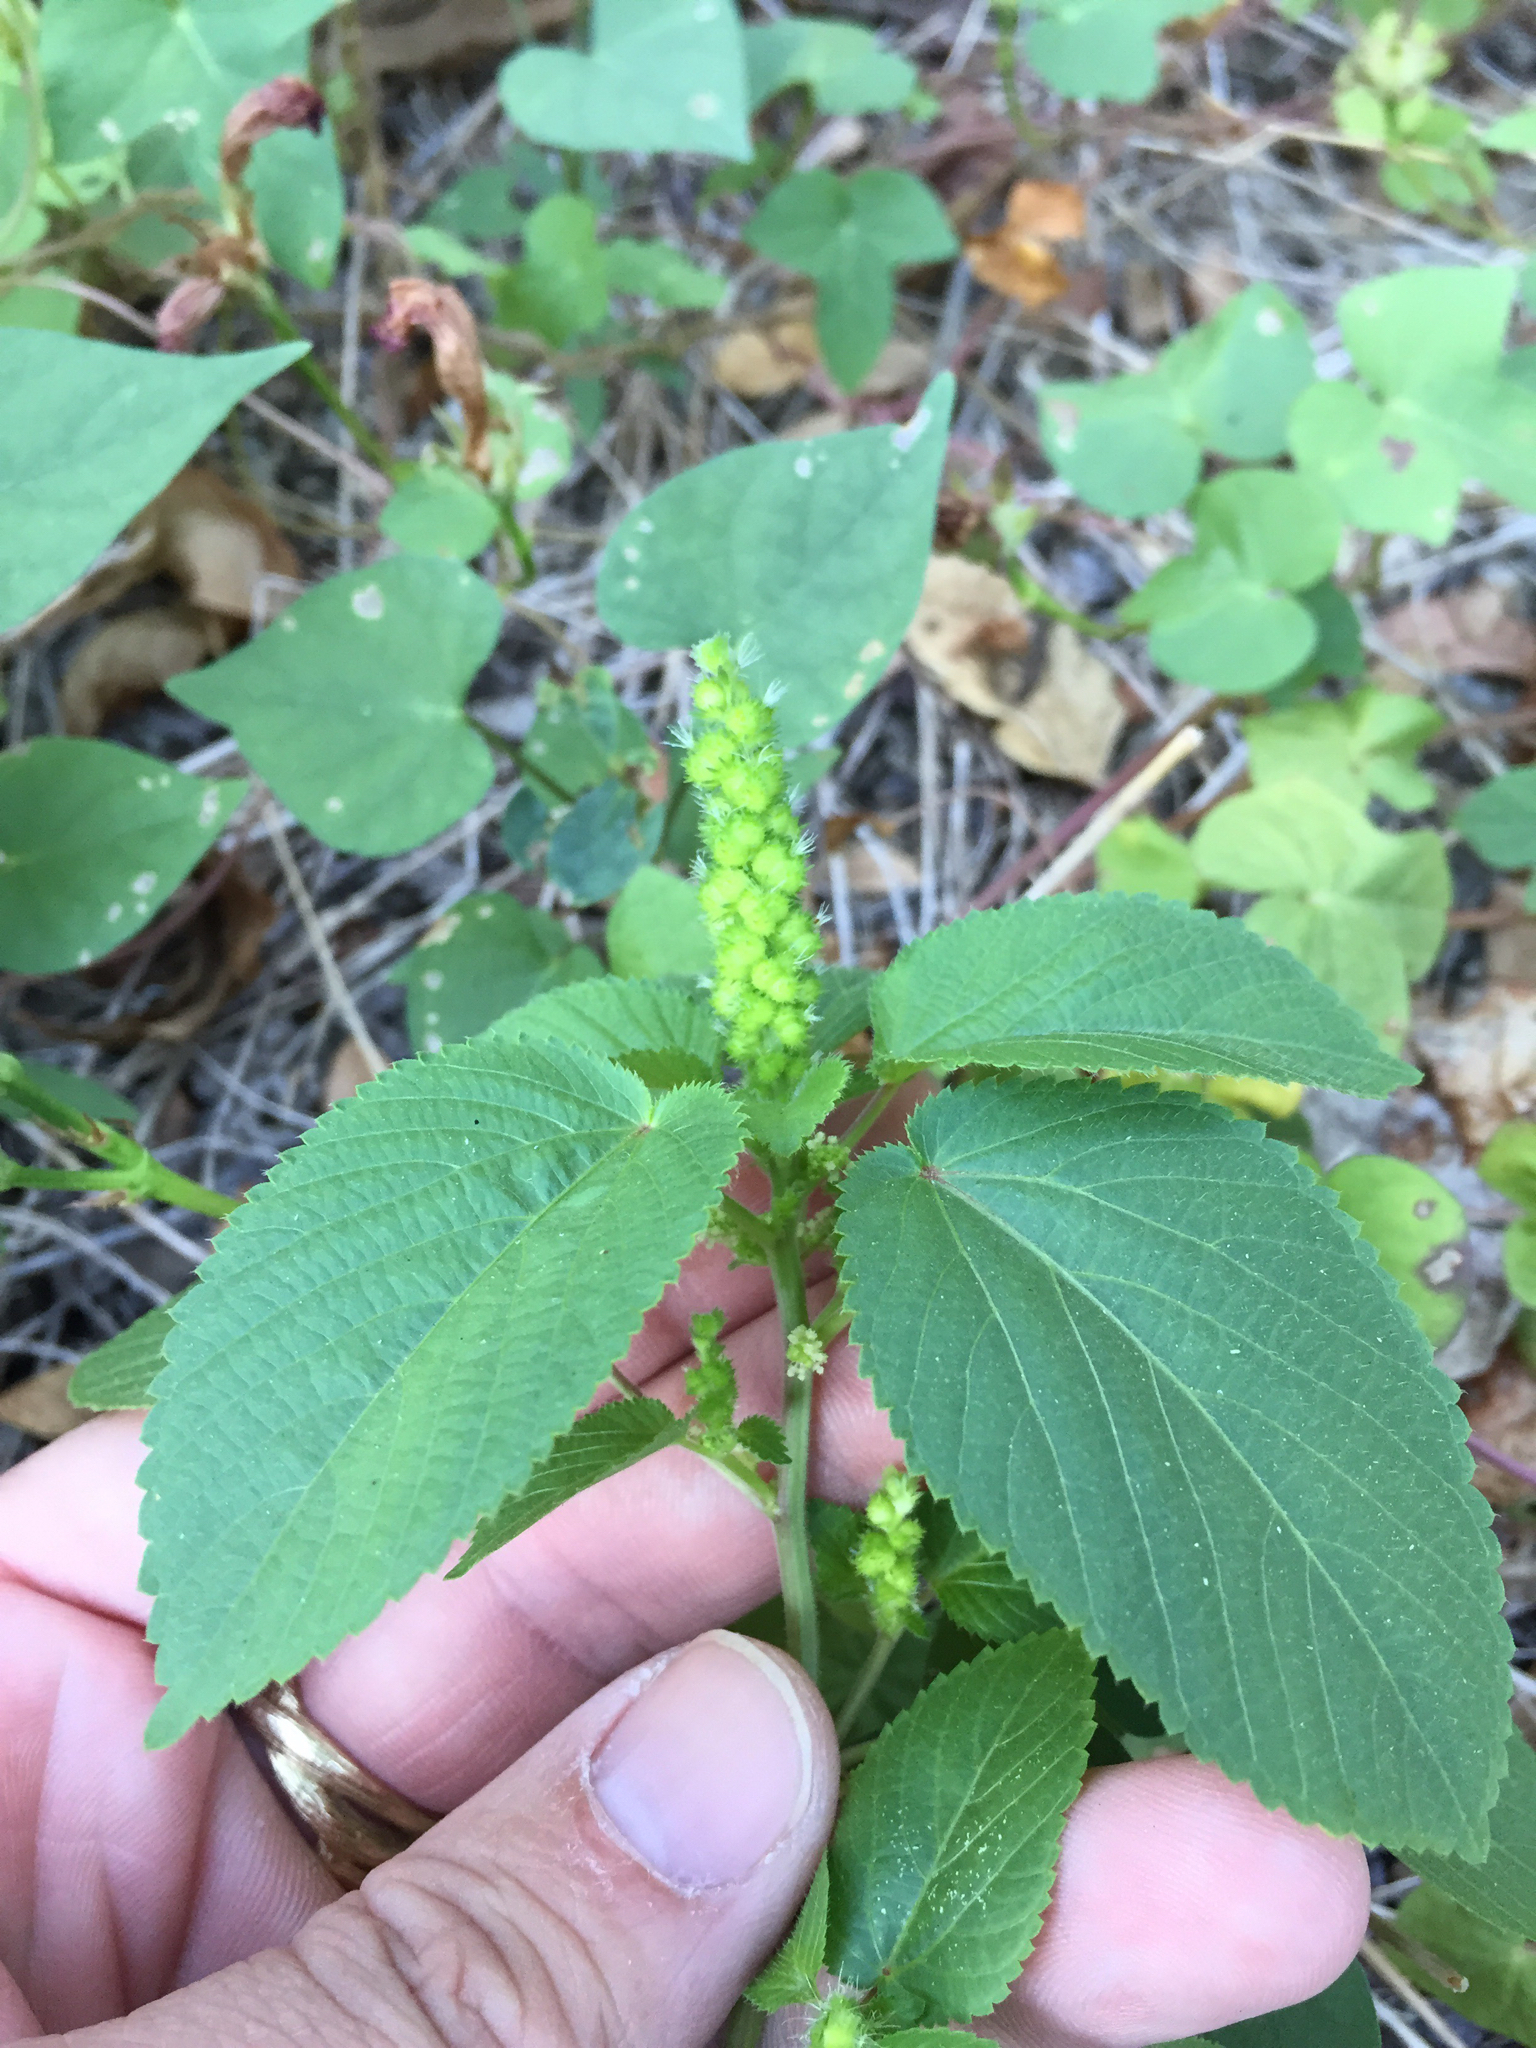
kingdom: Plantae
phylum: Tracheophyta
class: Magnoliopsida
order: Malpighiales
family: Euphorbiaceae
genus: Acalypha
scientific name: Acalypha ostryifolia
